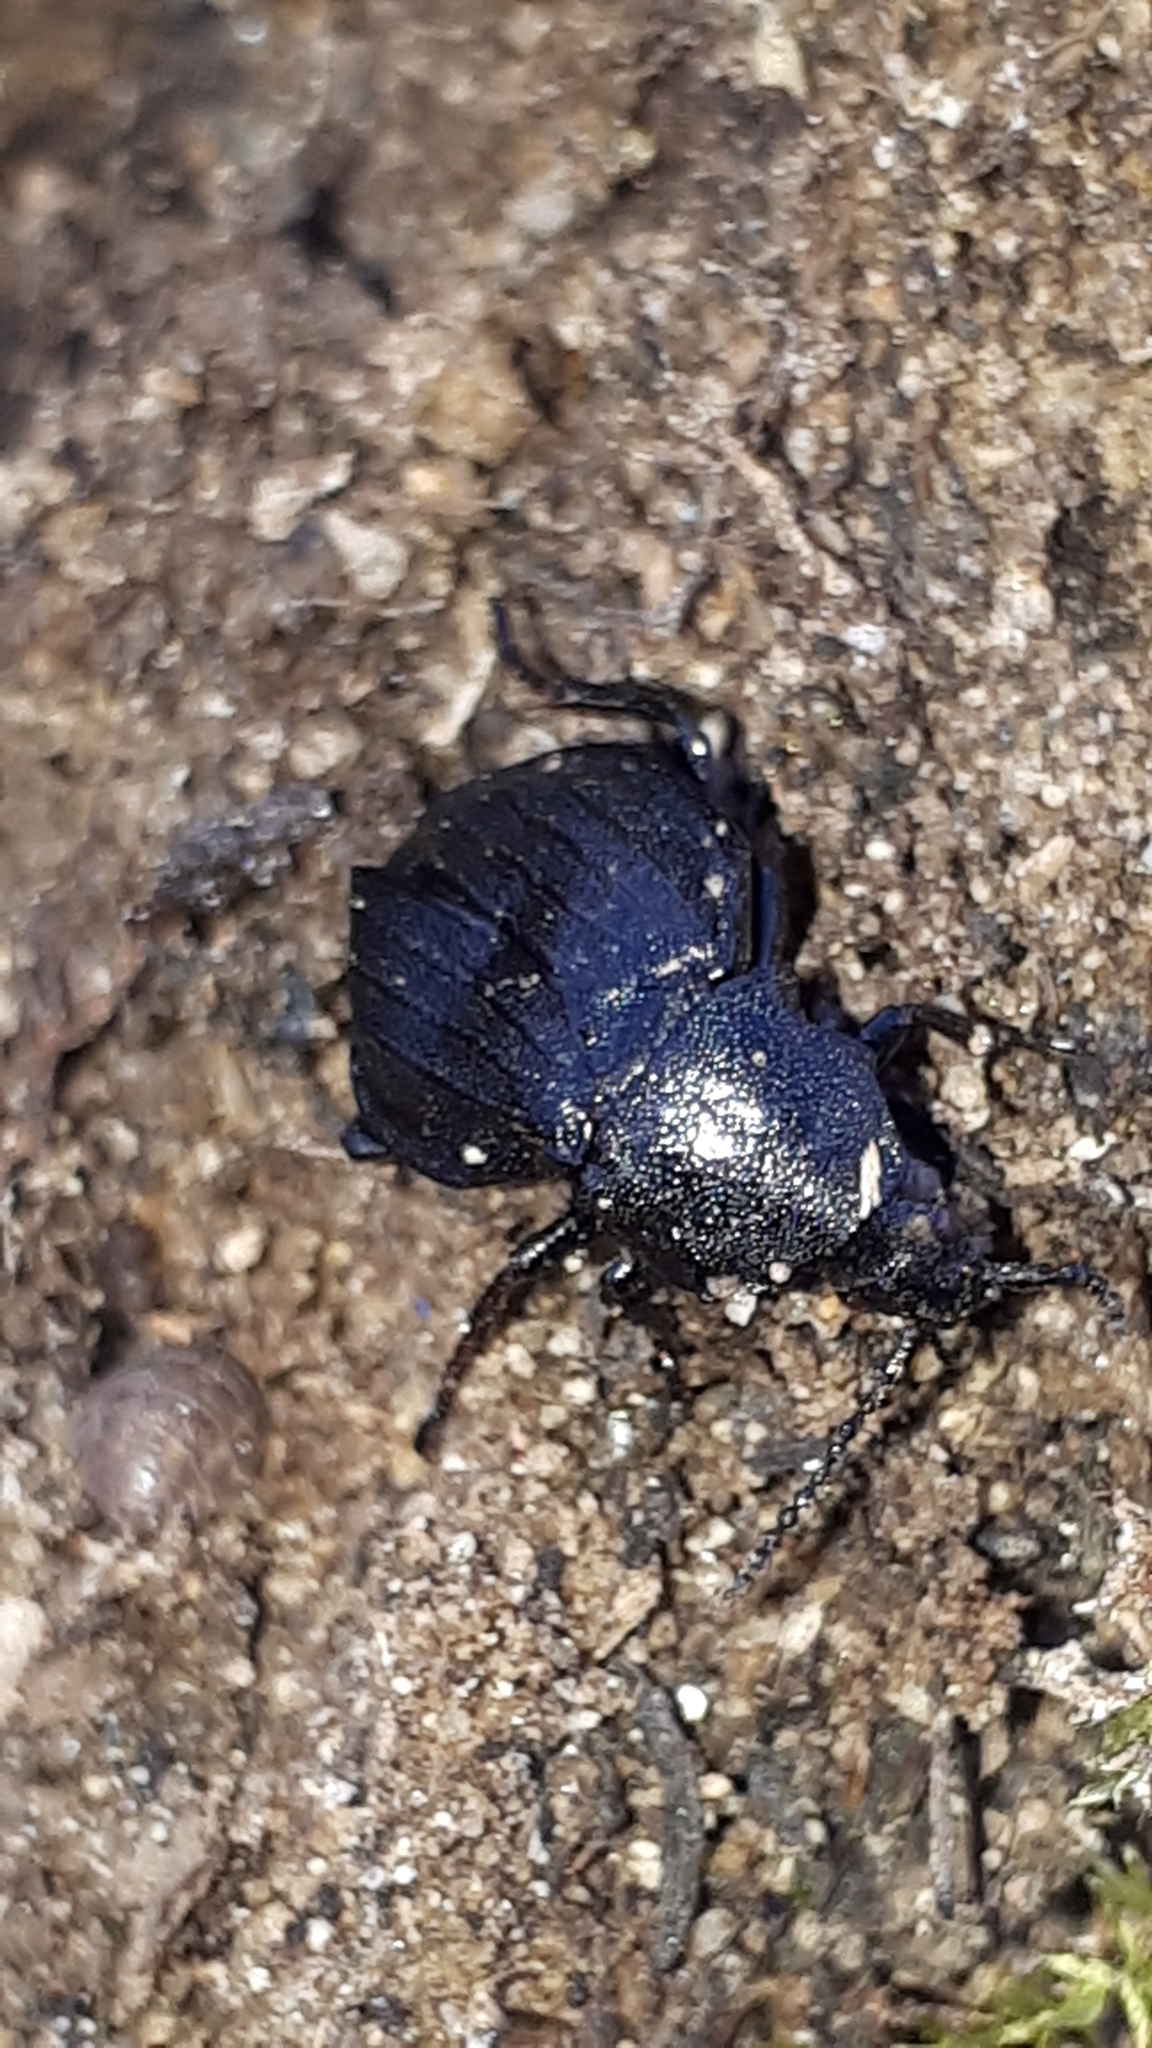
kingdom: Animalia
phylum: Arthropoda
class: Insecta
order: Coleoptera
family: Staphylinidae
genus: Silpha
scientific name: Silpha atrata
